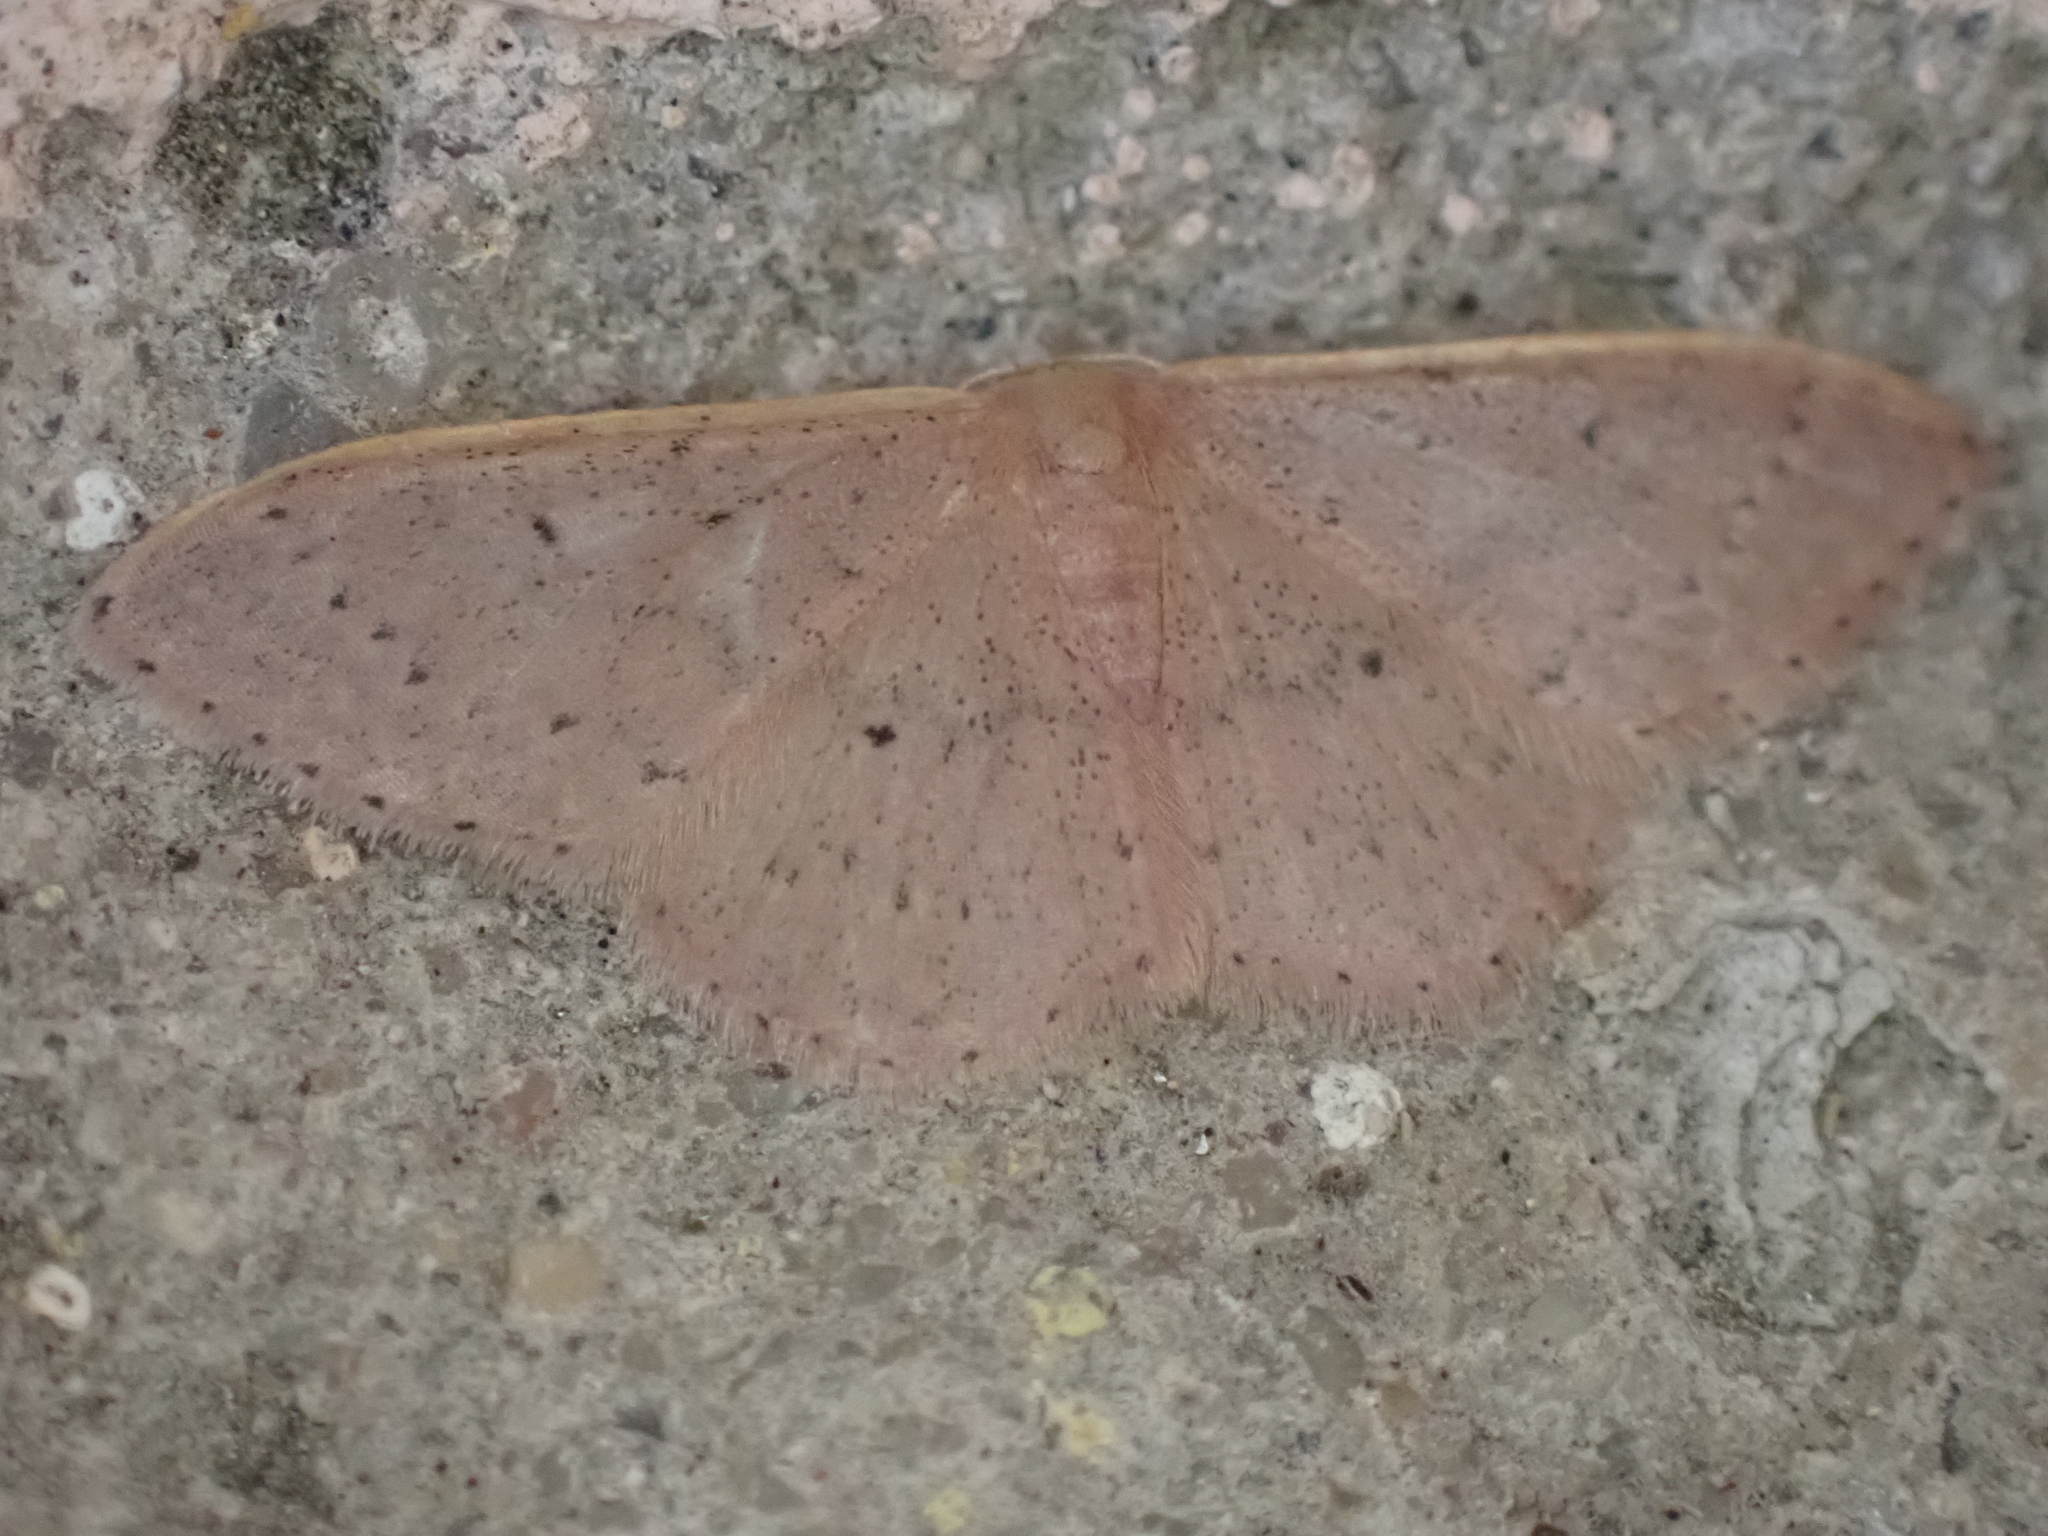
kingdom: Animalia
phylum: Arthropoda
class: Insecta
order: Lepidoptera
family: Geometridae
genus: Idaea
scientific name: Idaea eugeniata
